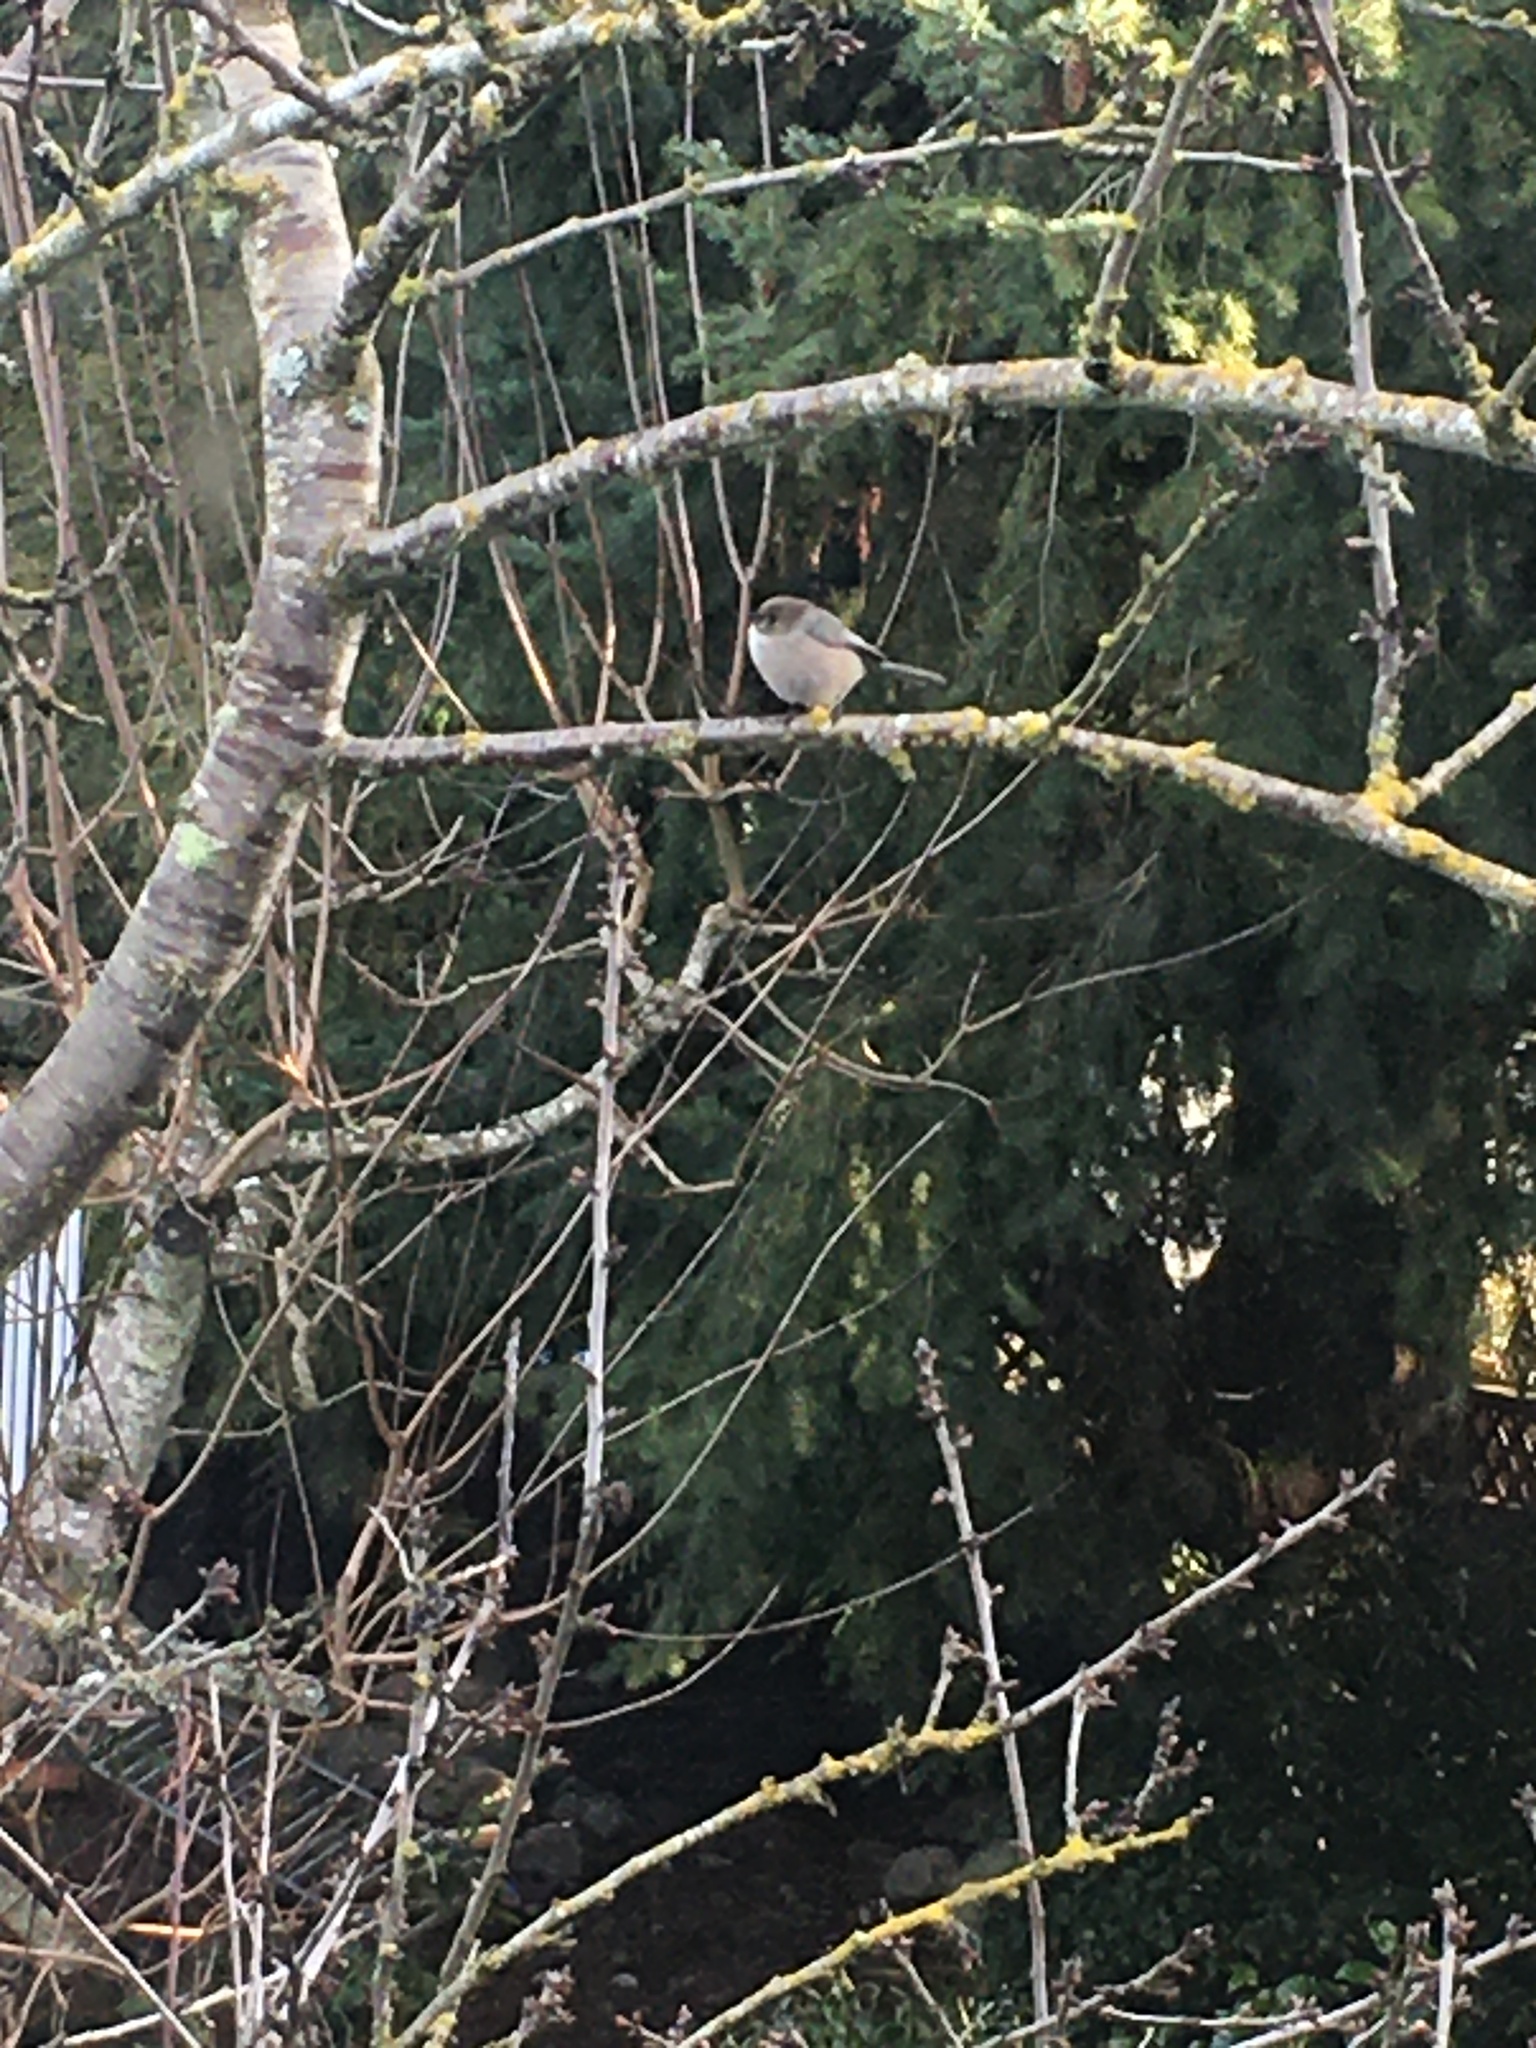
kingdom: Animalia
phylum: Chordata
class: Aves
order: Passeriformes
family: Aegithalidae
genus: Psaltriparus
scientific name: Psaltriparus minimus
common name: American bushtit
